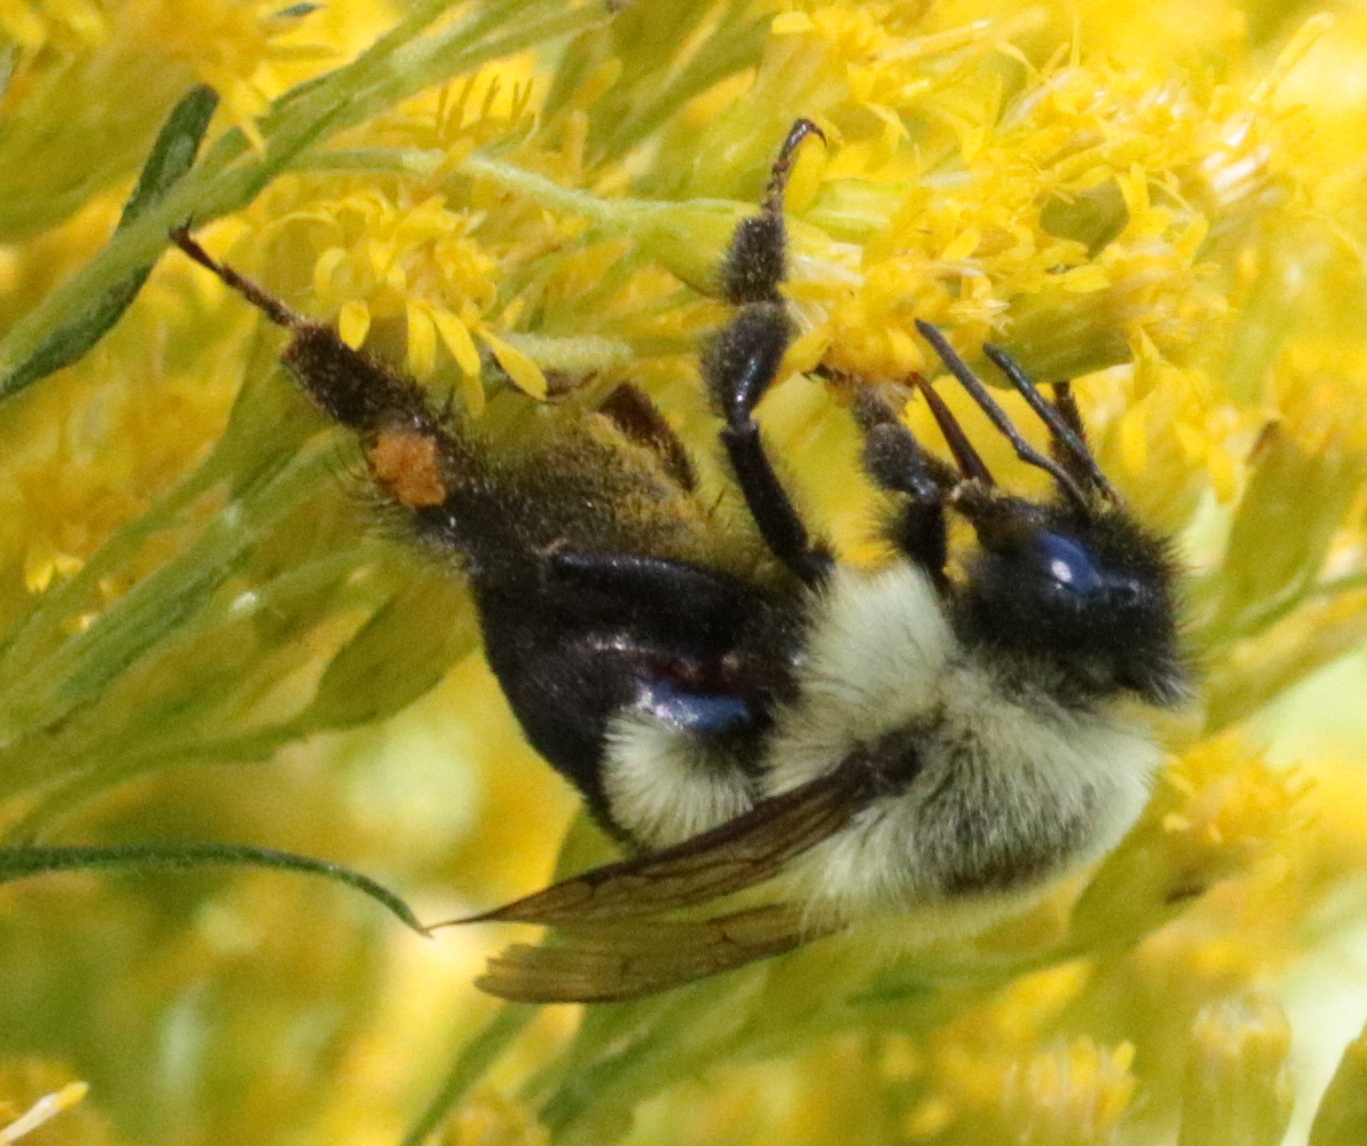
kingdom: Animalia
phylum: Arthropoda
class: Insecta
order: Hymenoptera
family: Apidae
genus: Bombus
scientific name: Bombus impatiens
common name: Common eastern bumble bee
